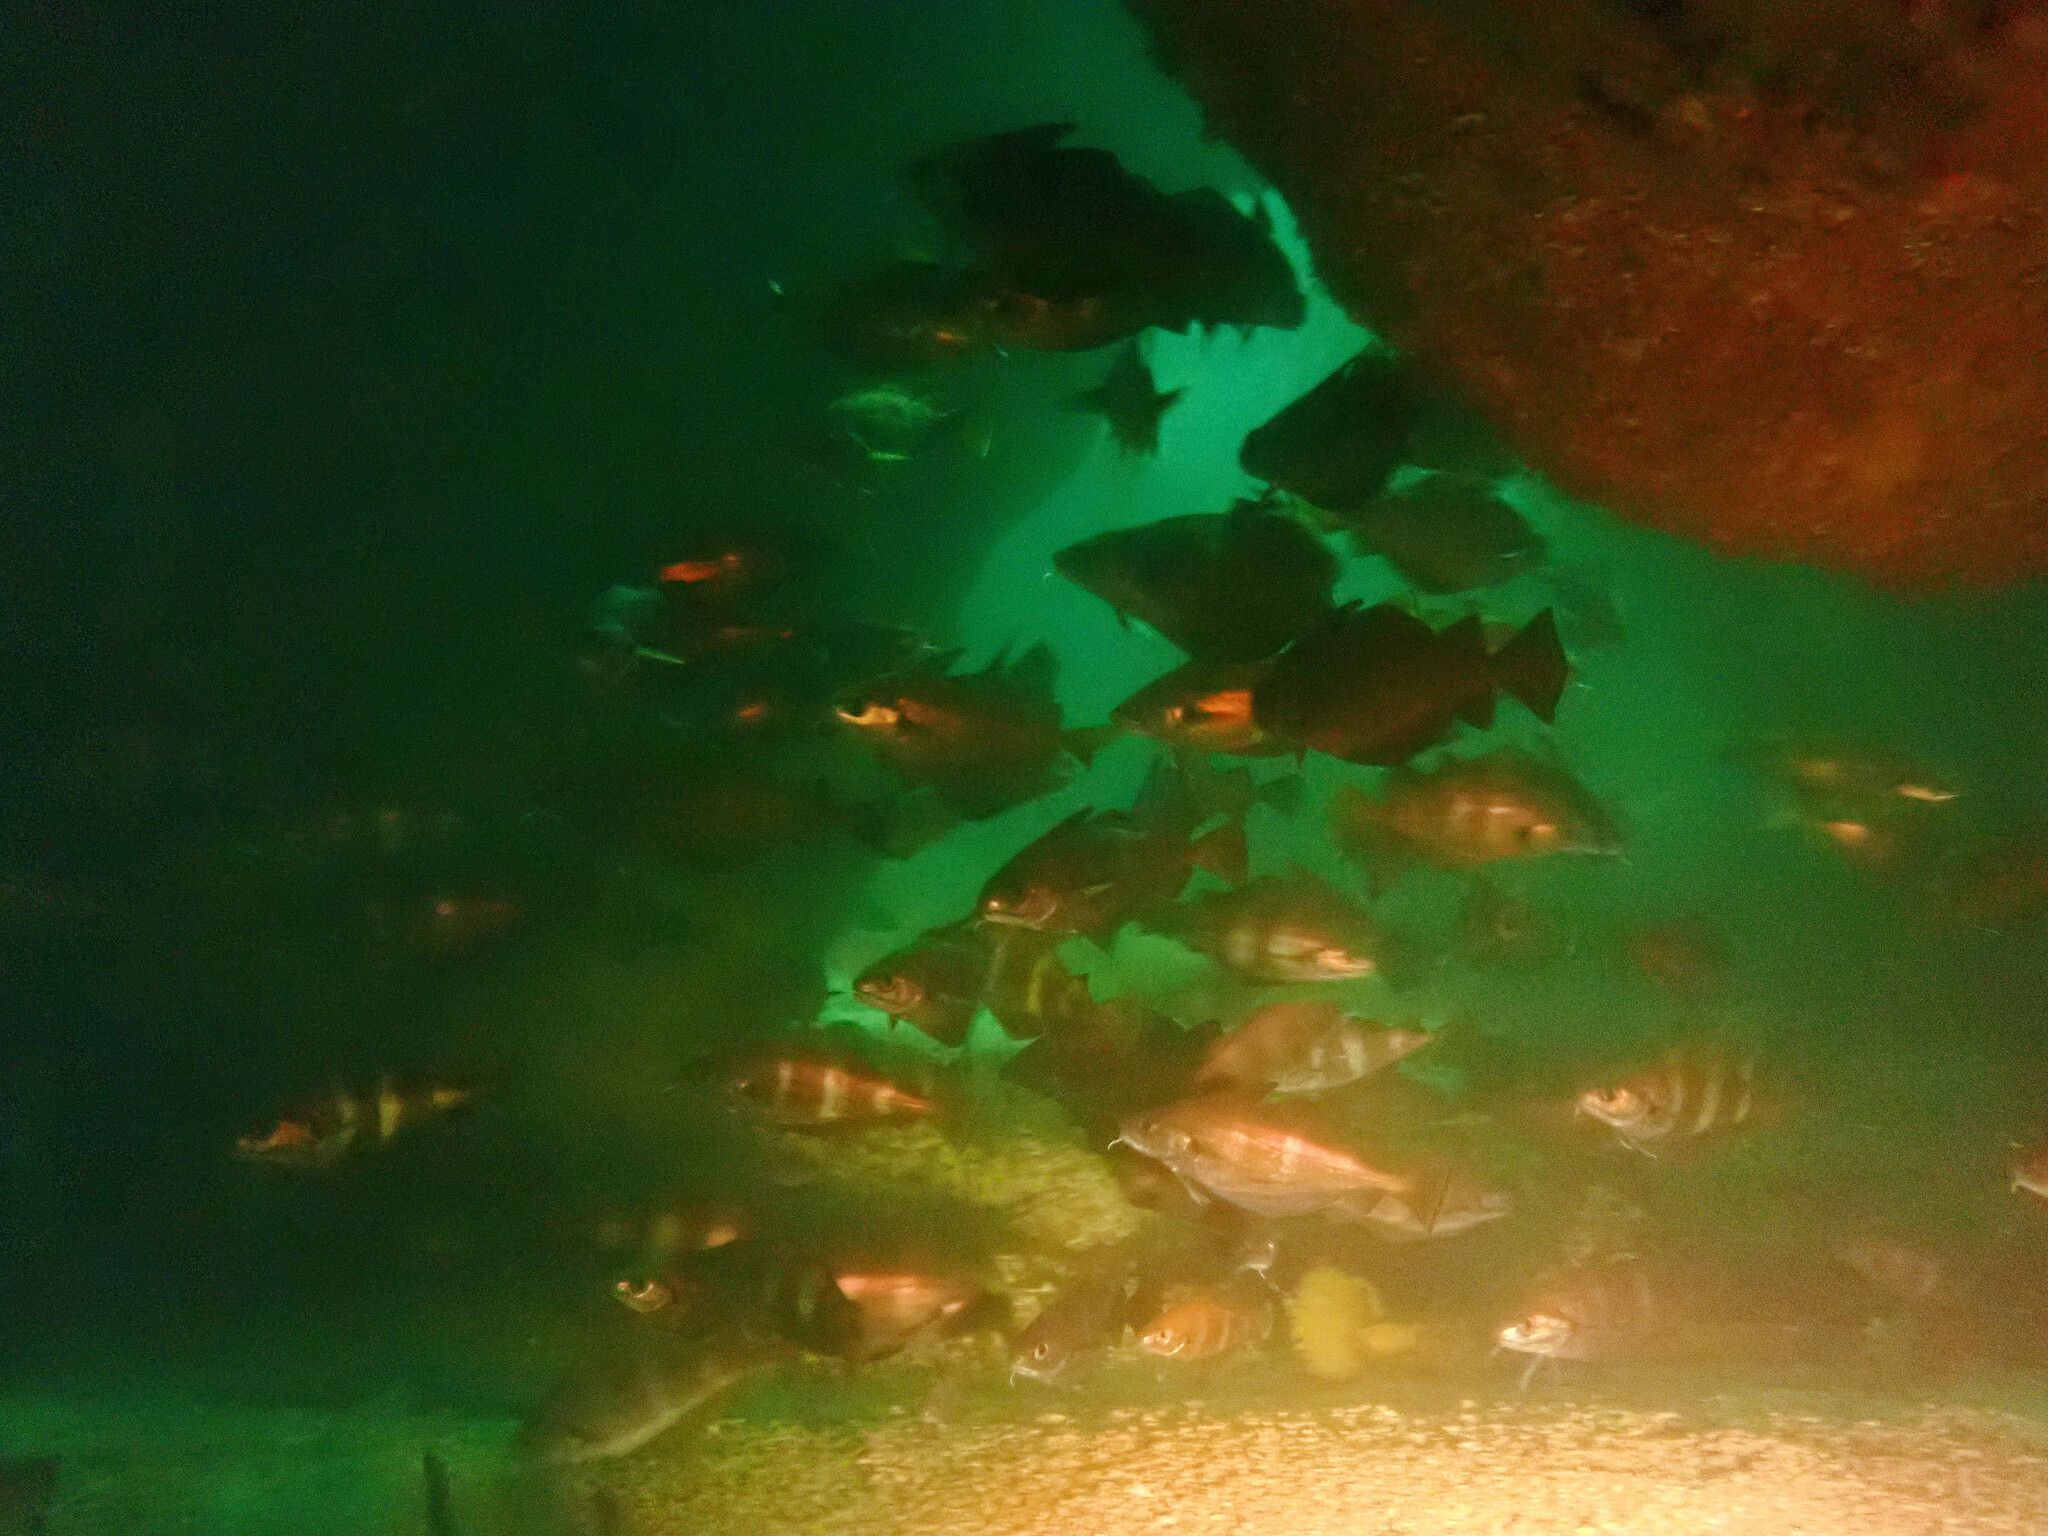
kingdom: Animalia
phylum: Chordata
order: Gadiformes
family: Gadidae
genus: Trisopterus
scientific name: Trisopterus luscus
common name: Bib
